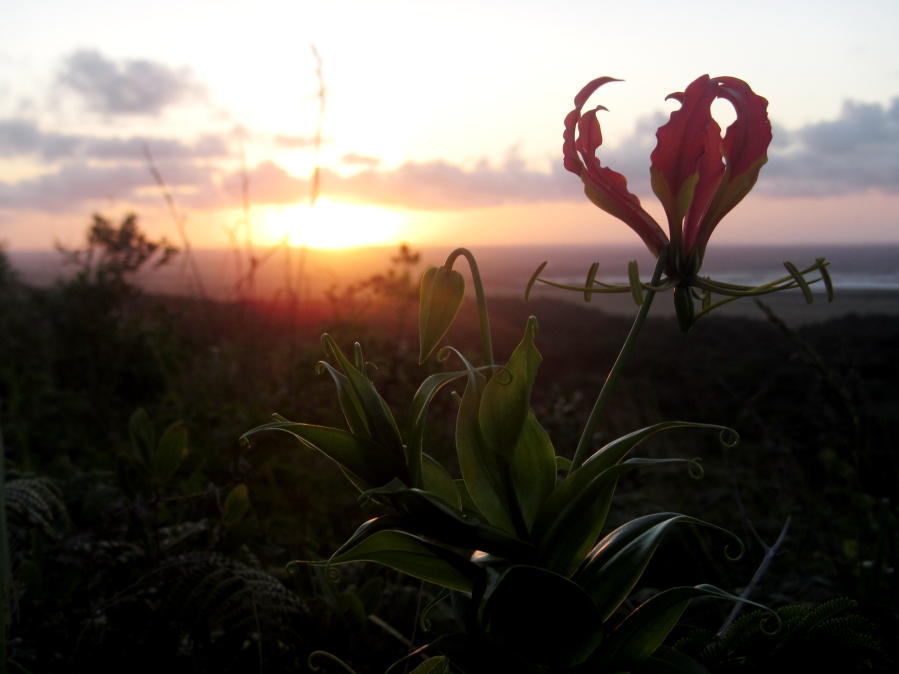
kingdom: Plantae
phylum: Tracheophyta
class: Liliopsida
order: Liliales
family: Colchicaceae
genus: Gloriosa
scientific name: Gloriosa superba
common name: Flame lily
